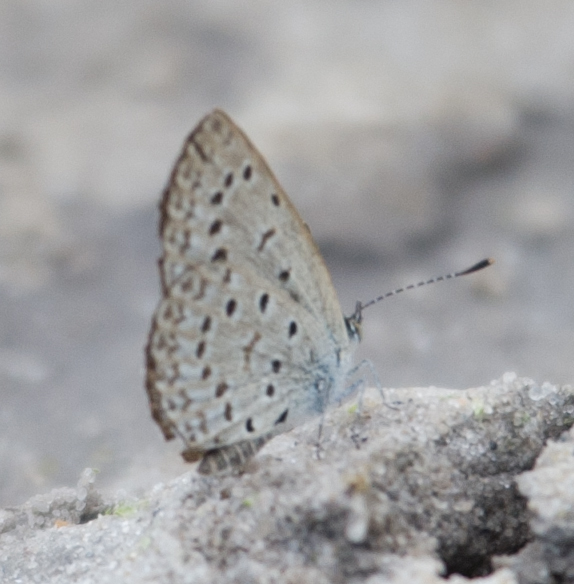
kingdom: Animalia
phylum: Arthropoda
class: Insecta
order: Lepidoptera
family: Lycaenidae
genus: Zizeeria
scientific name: Zizeeria knysna
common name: African grass blue
